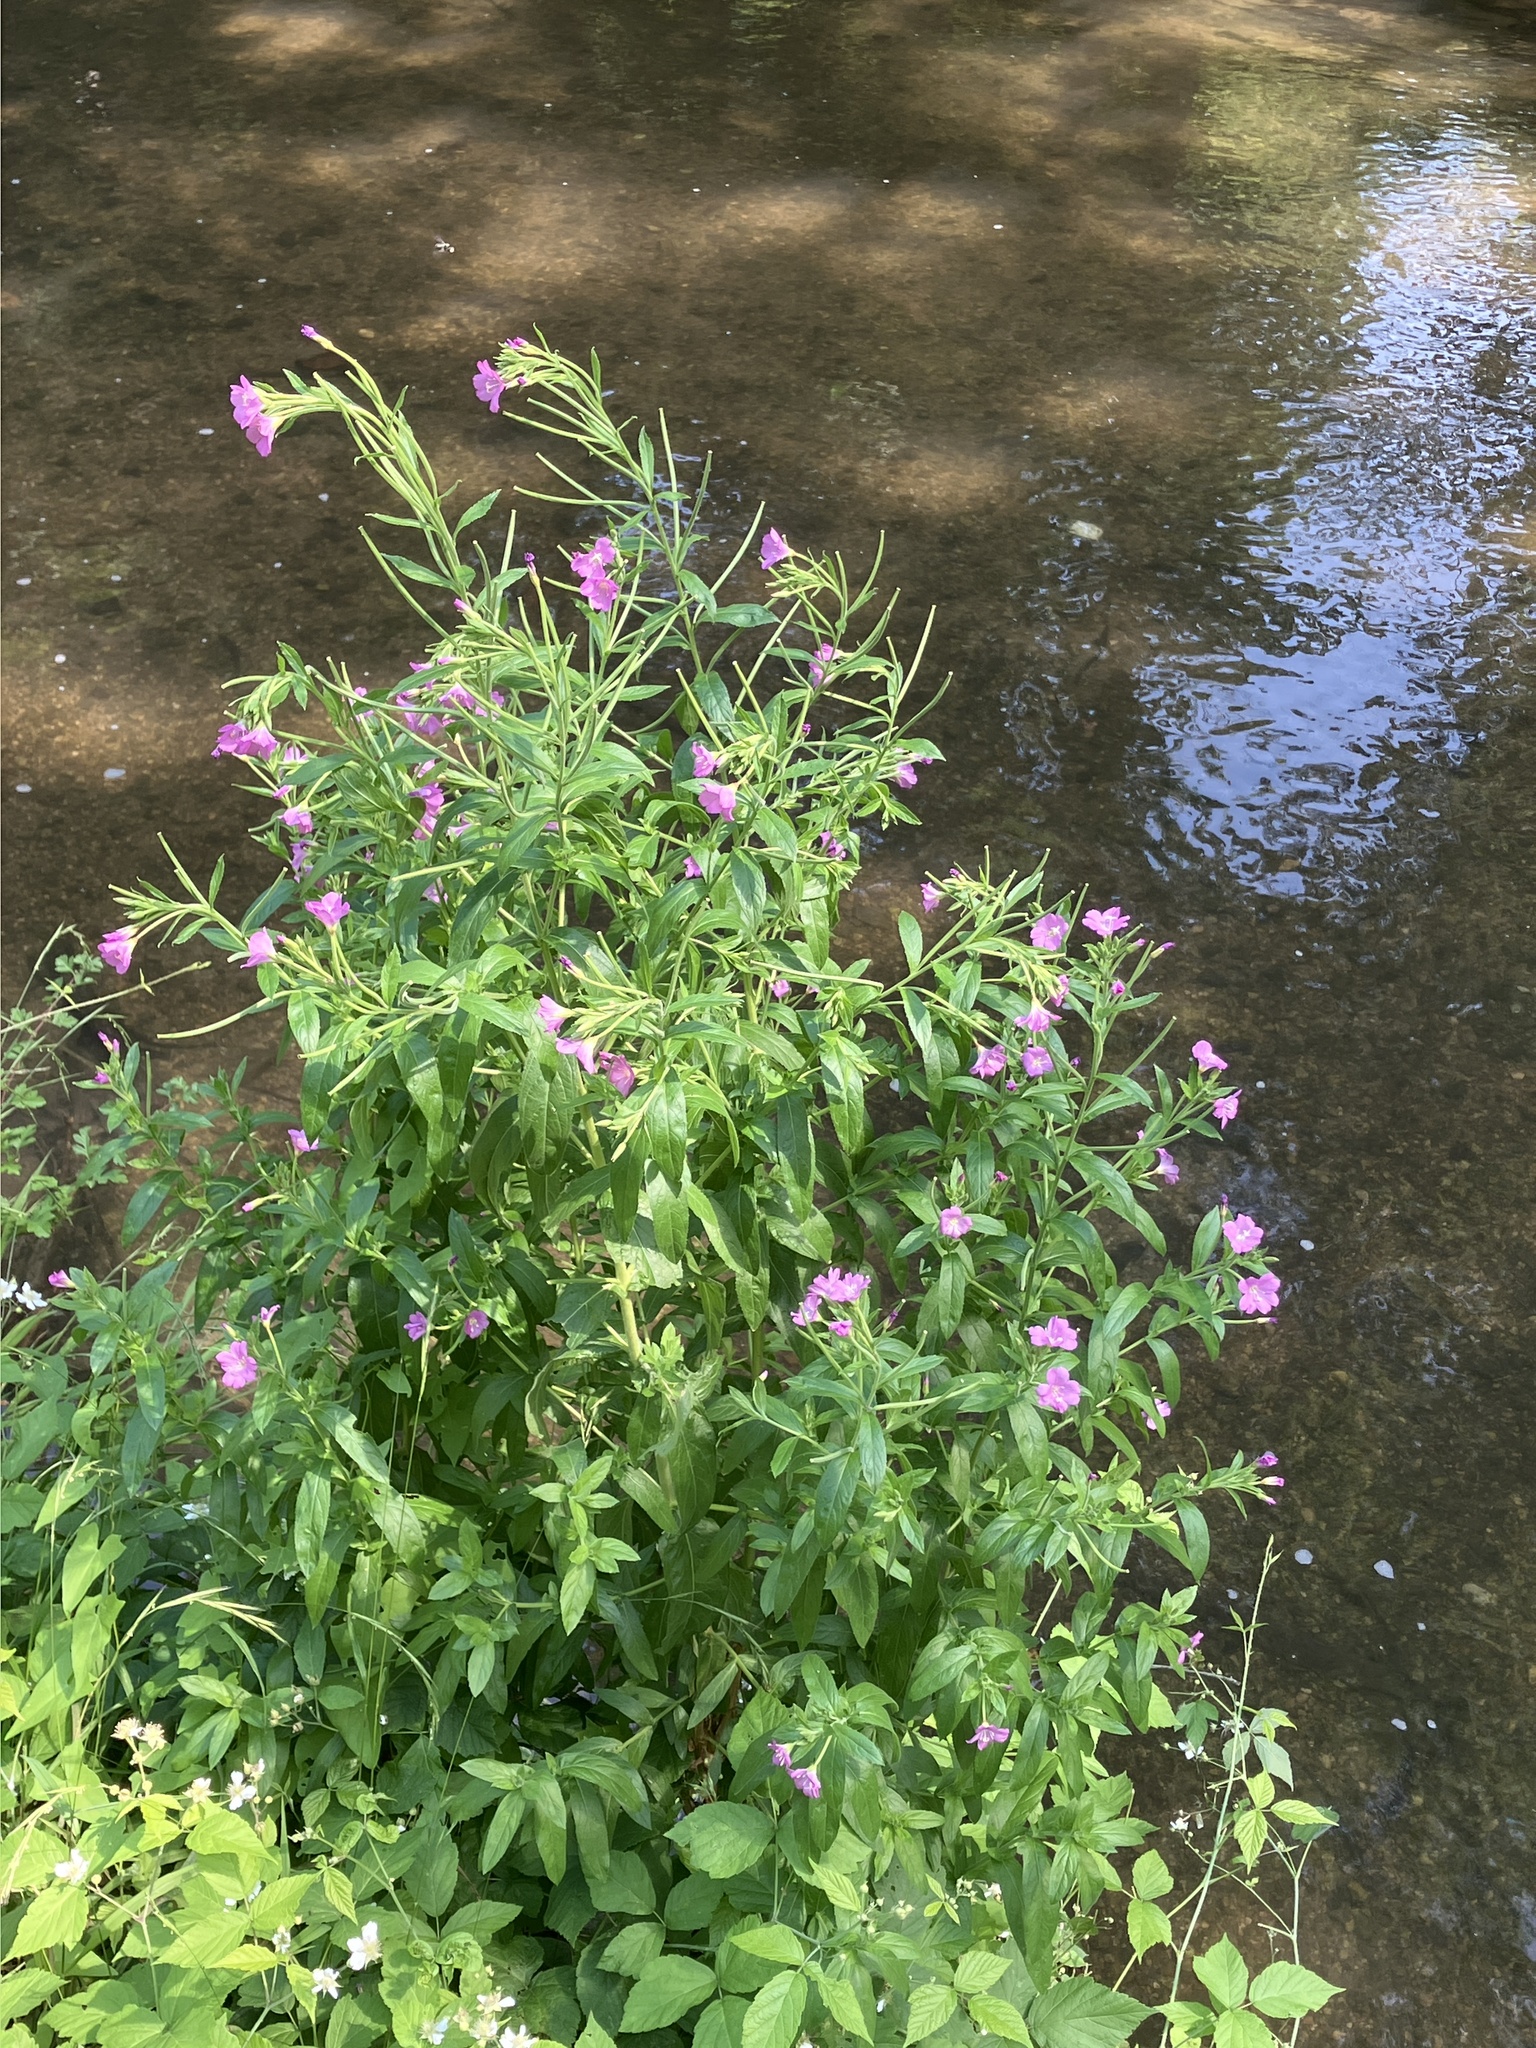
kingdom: Plantae
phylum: Tracheophyta
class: Magnoliopsida
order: Myrtales
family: Onagraceae
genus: Epilobium
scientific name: Epilobium hirsutum
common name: Great willowherb
